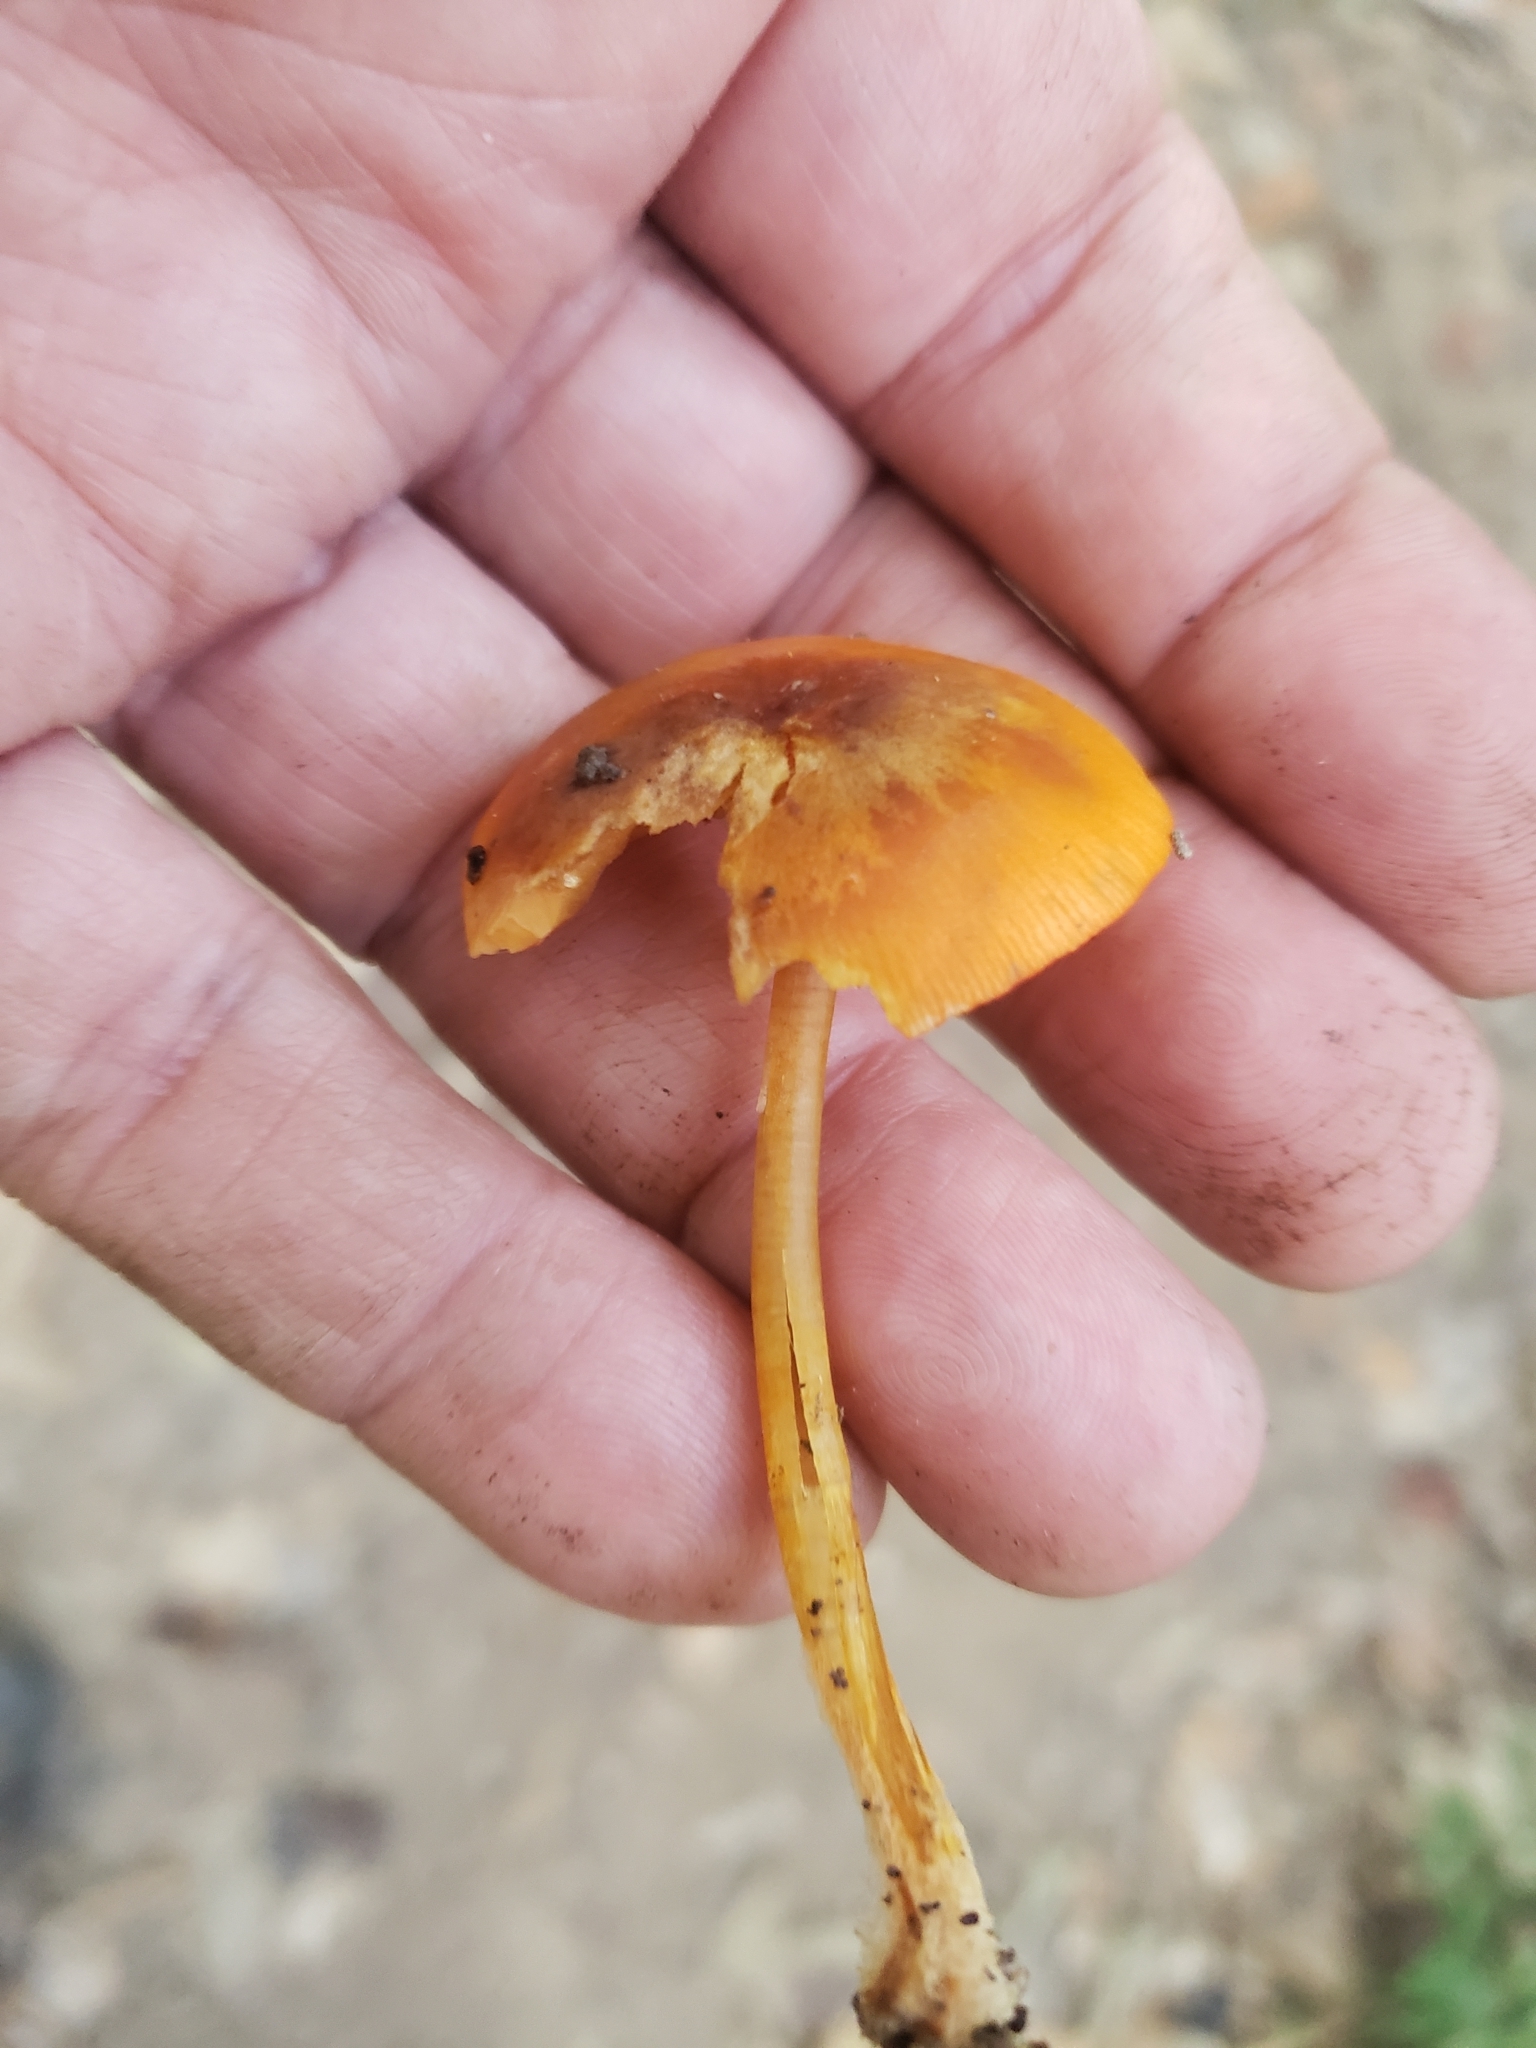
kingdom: Fungi
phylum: Basidiomycota
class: Agaricomycetes
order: Agaricales
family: Mycenaceae
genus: Mycena
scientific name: Mycena leaiana
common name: Orange mycena
